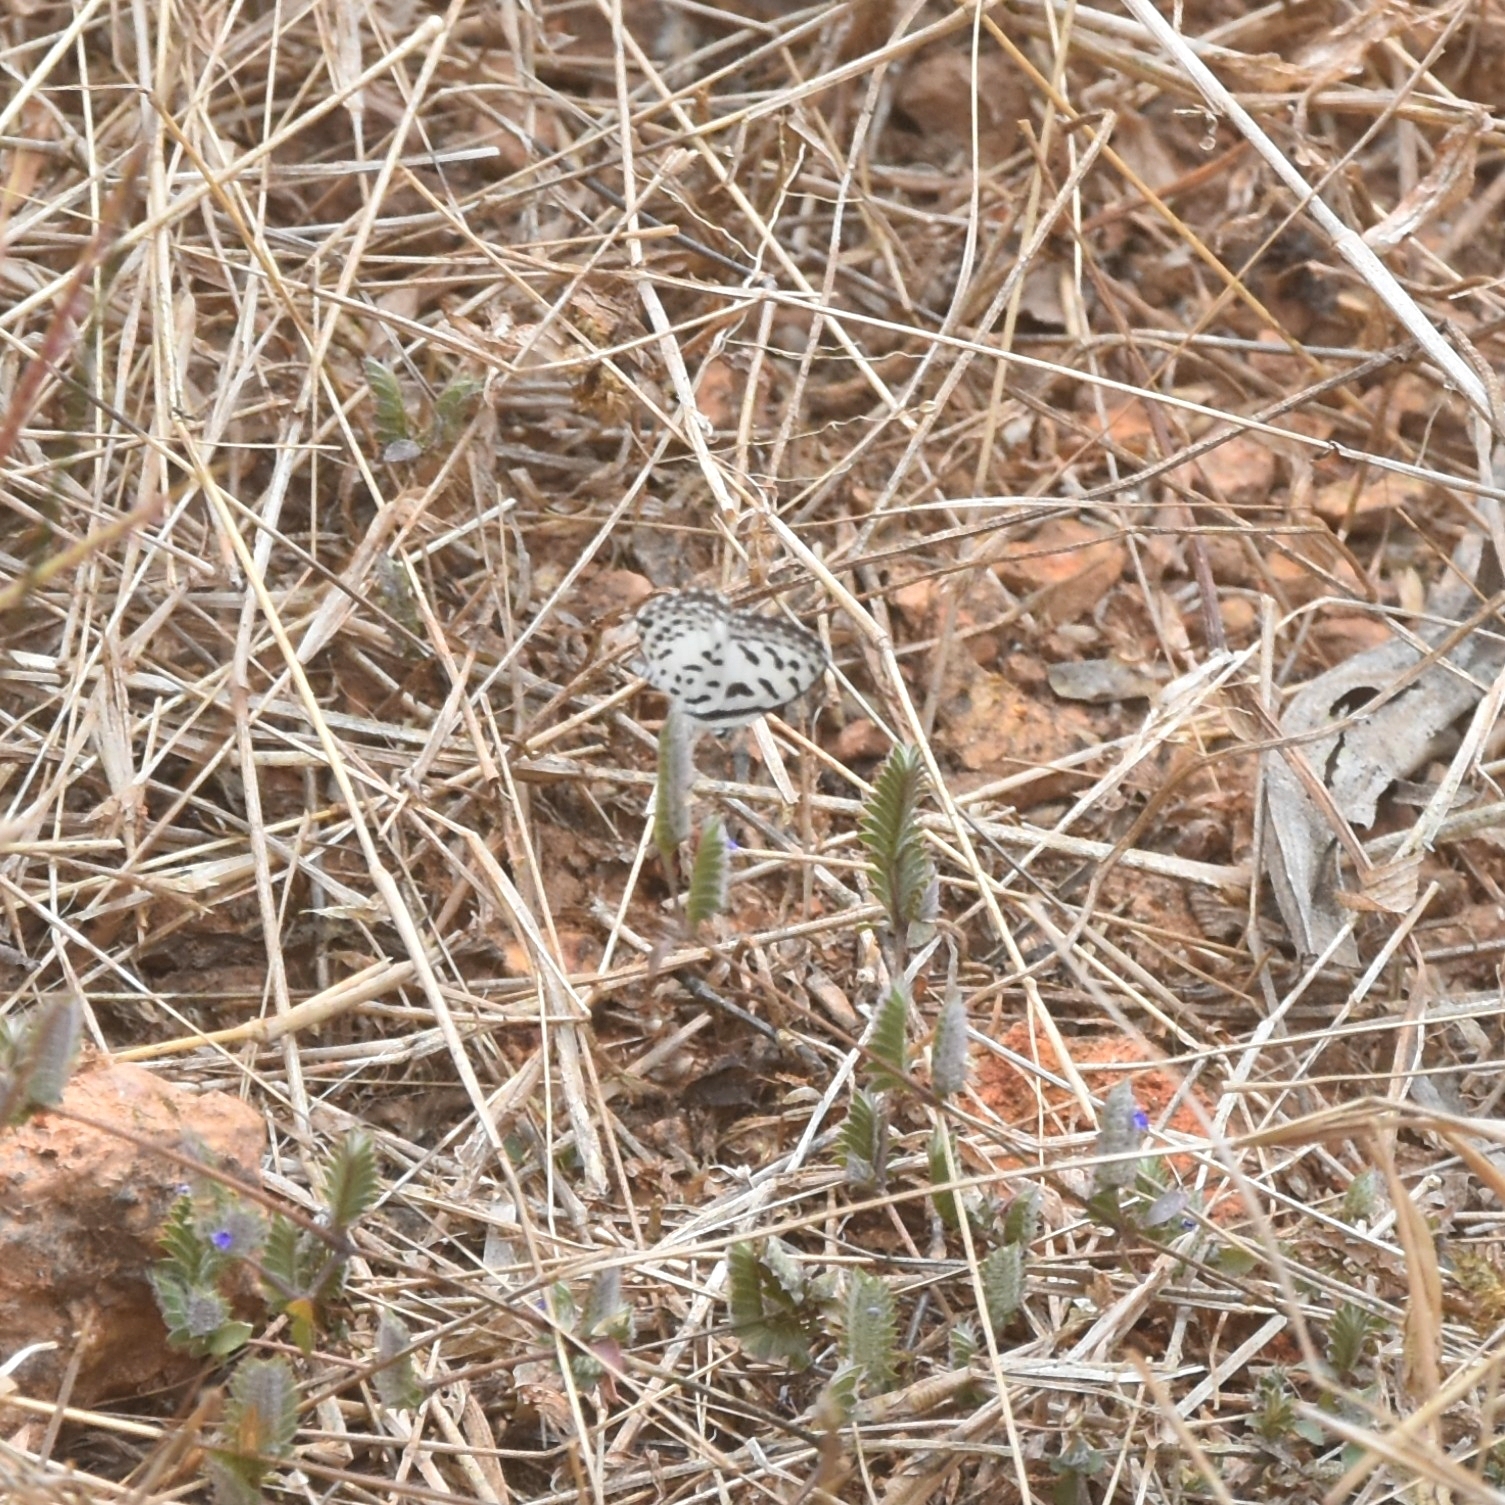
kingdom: Animalia
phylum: Arthropoda
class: Insecta
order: Lepidoptera
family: Lycaenidae
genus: Castalius
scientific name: Castalius rosimon
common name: Common pierrot
